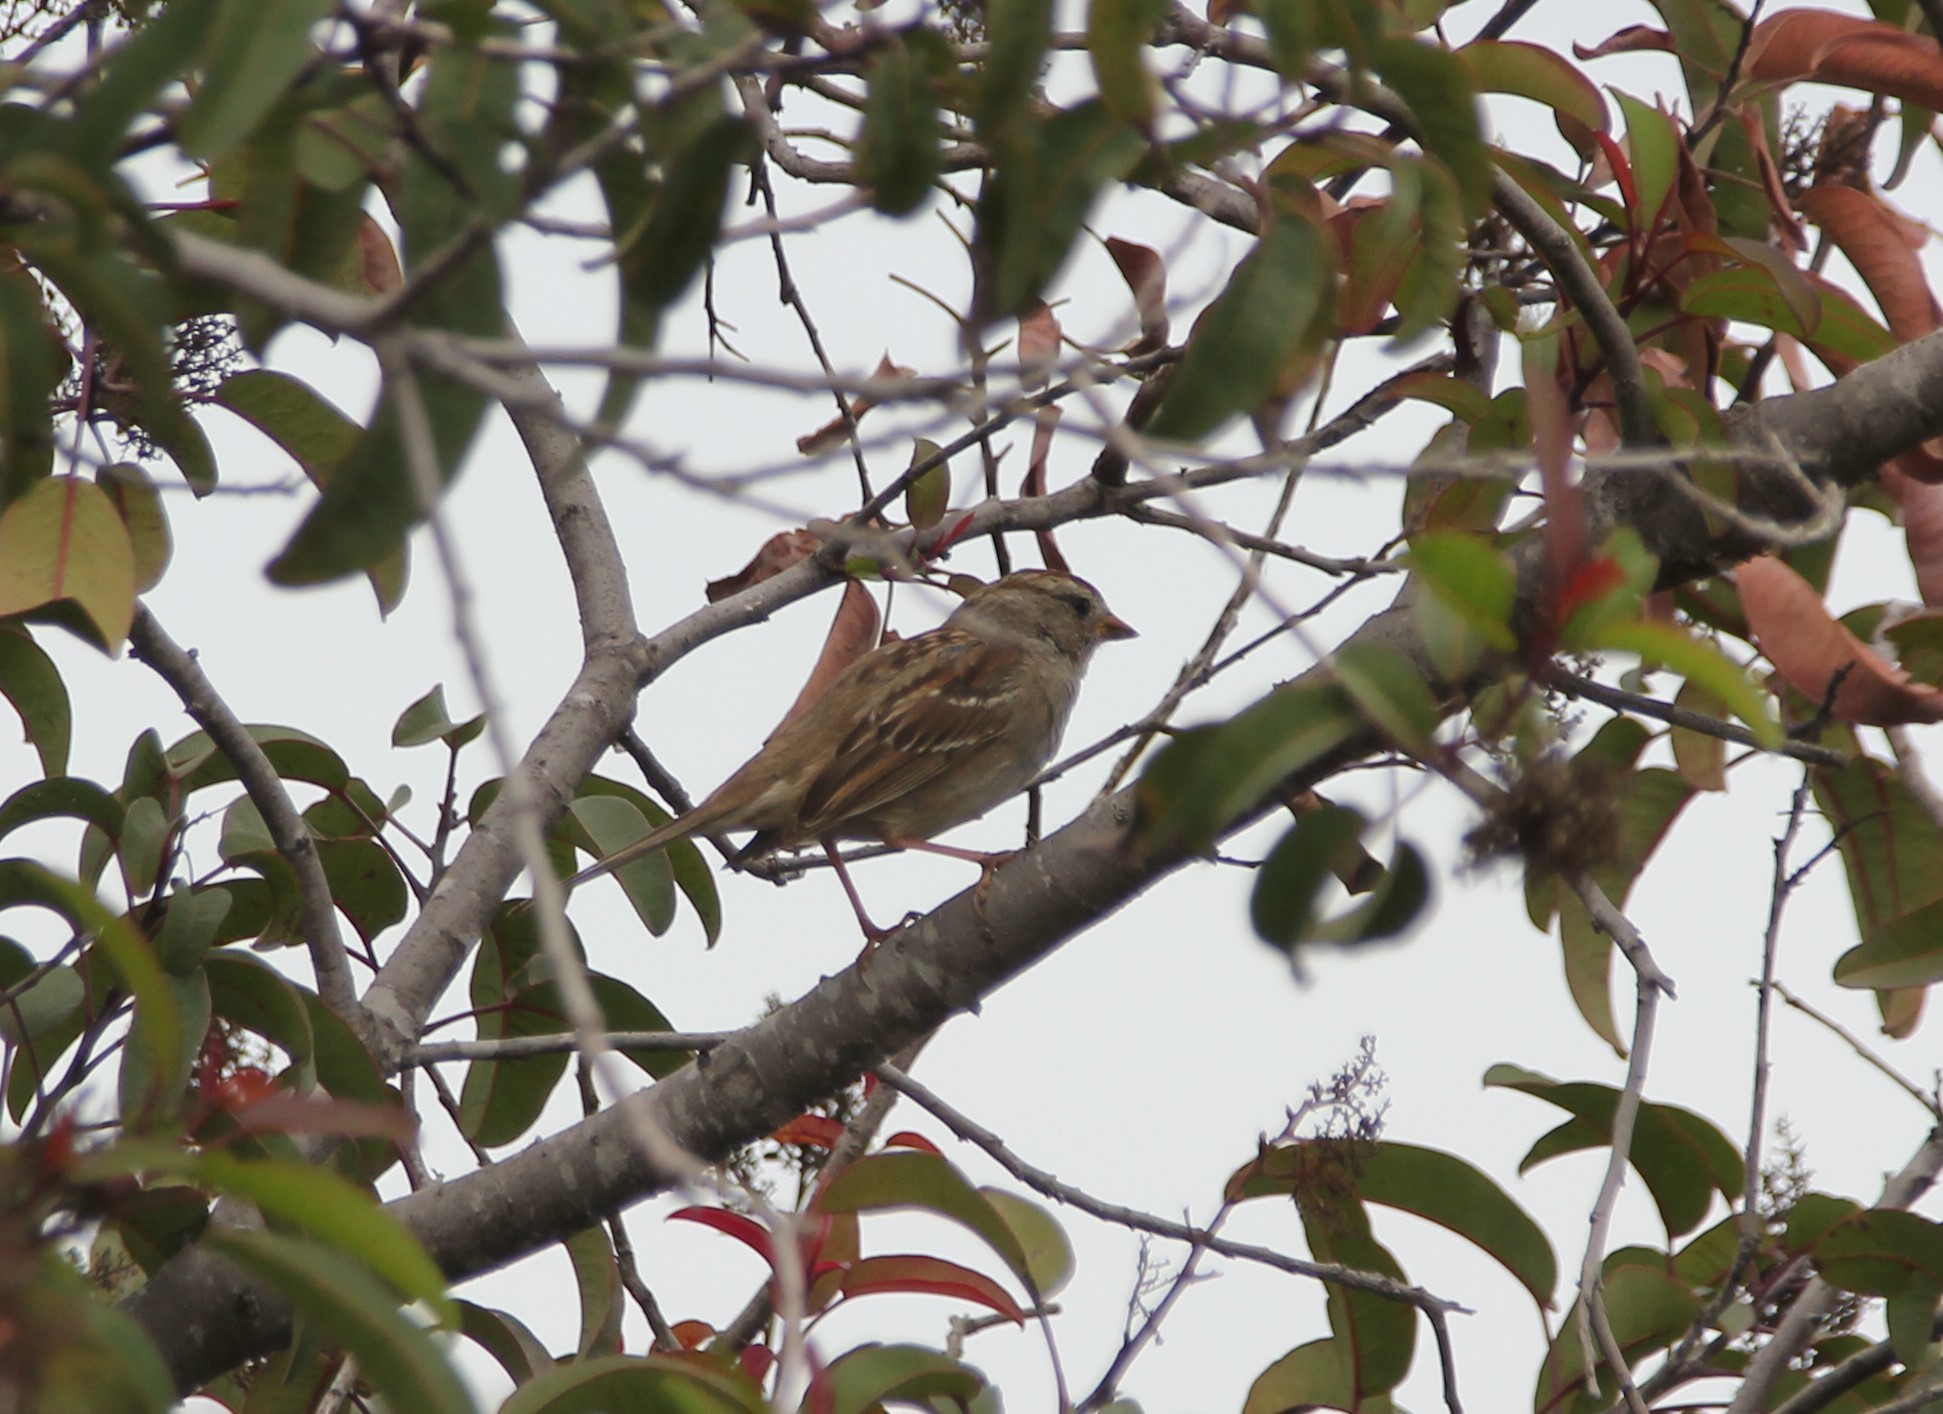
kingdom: Animalia
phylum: Chordata
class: Aves
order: Passeriformes
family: Passerellidae
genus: Zonotrichia
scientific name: Zonotrichia leucophrys
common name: White-crowned sparrow
